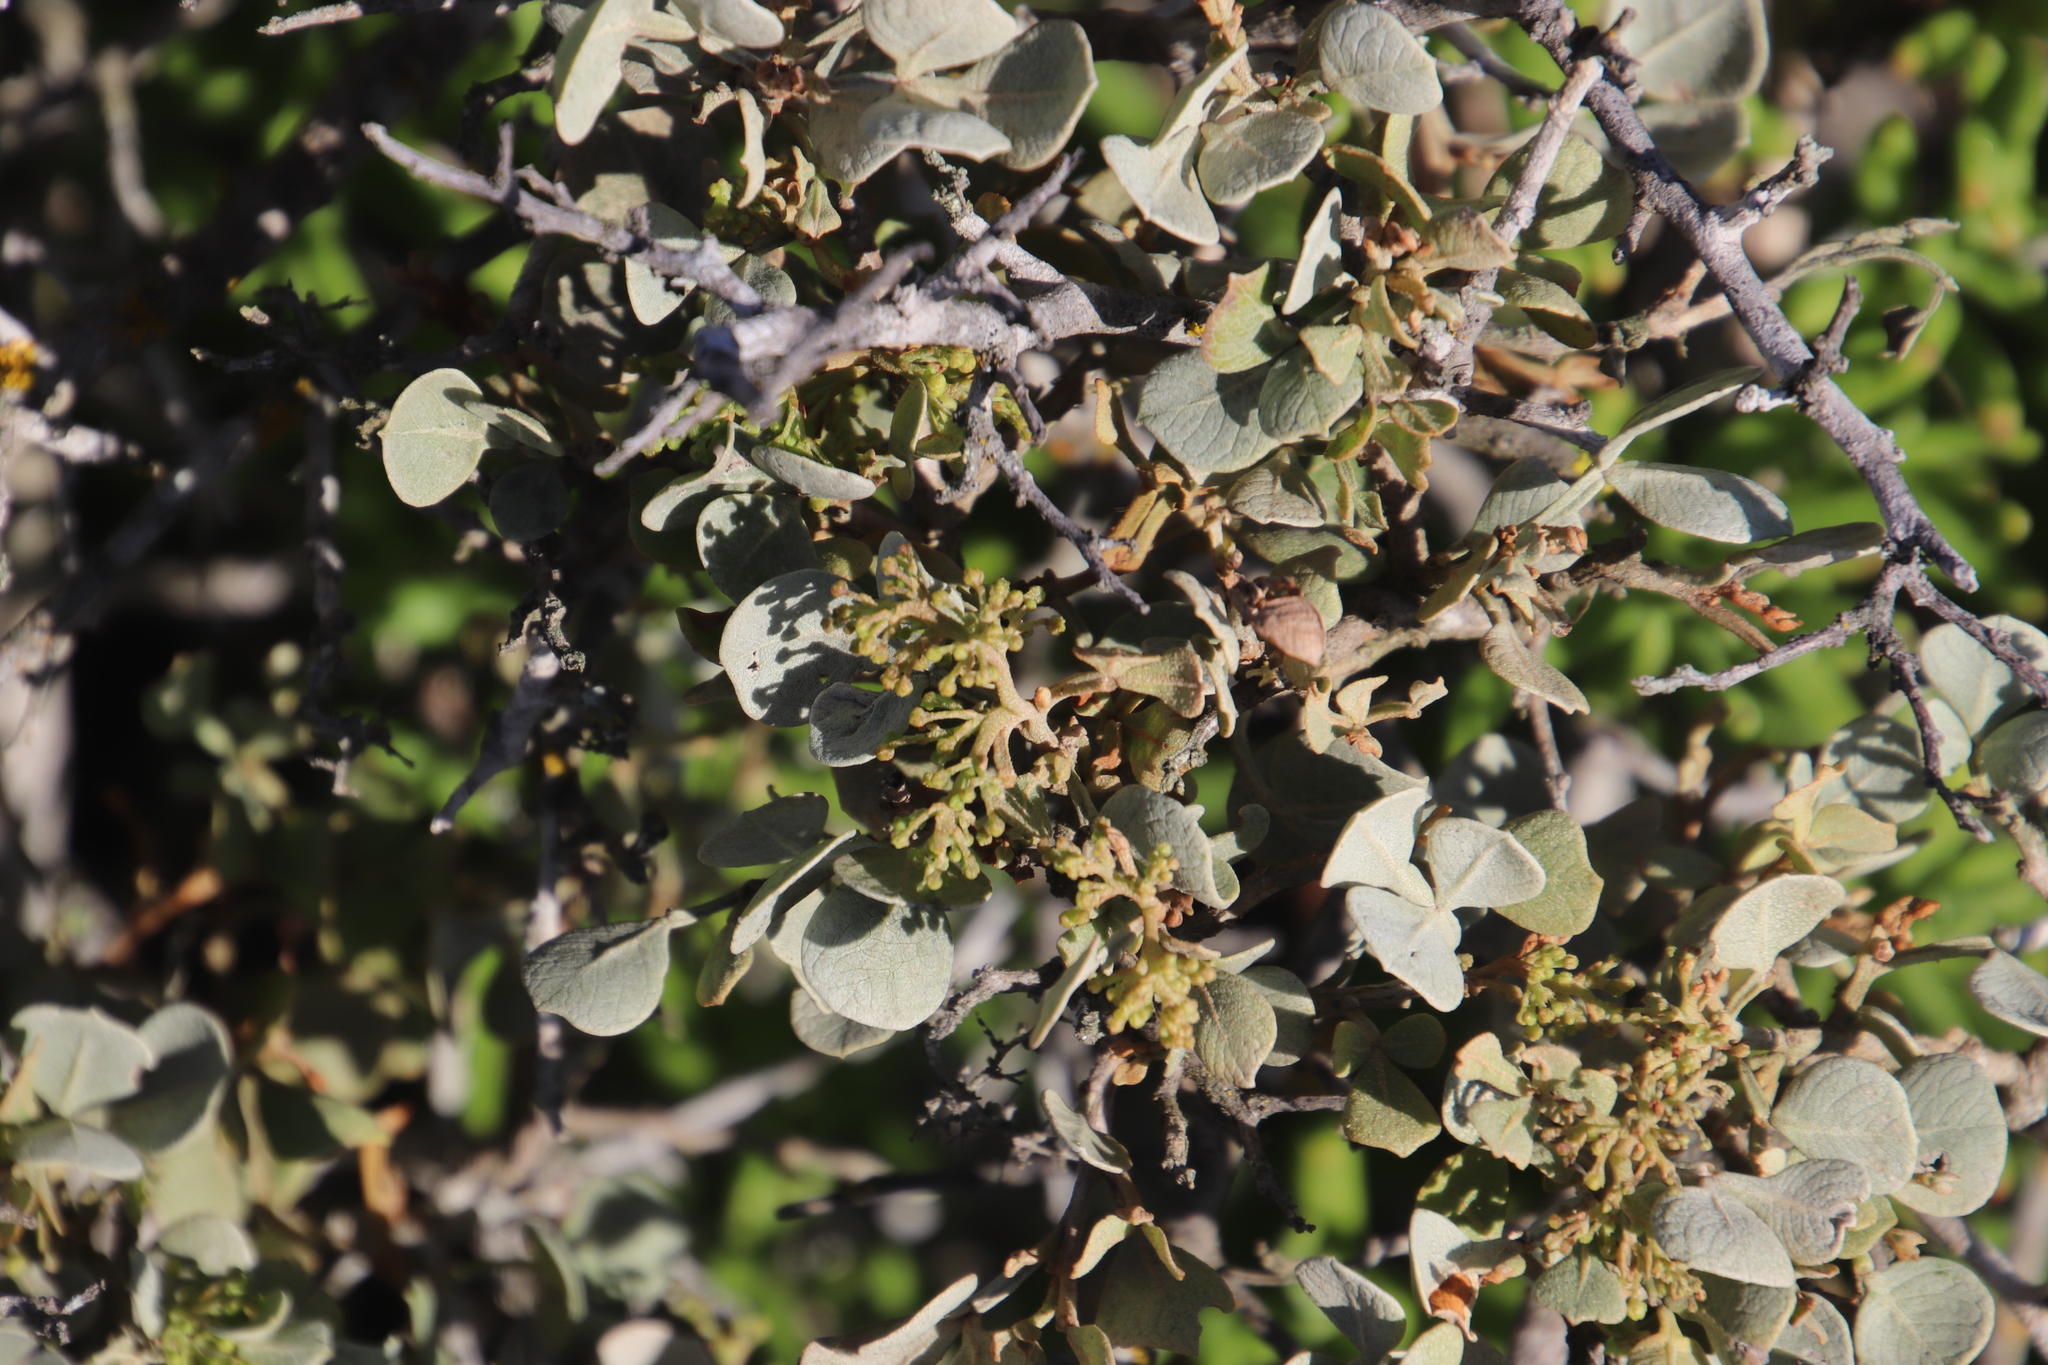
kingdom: Plantae
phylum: Tracheophyta
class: Magnoliopsida
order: Sapindales
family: Anacardiaceae
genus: Searsia
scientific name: Searsia glauca
